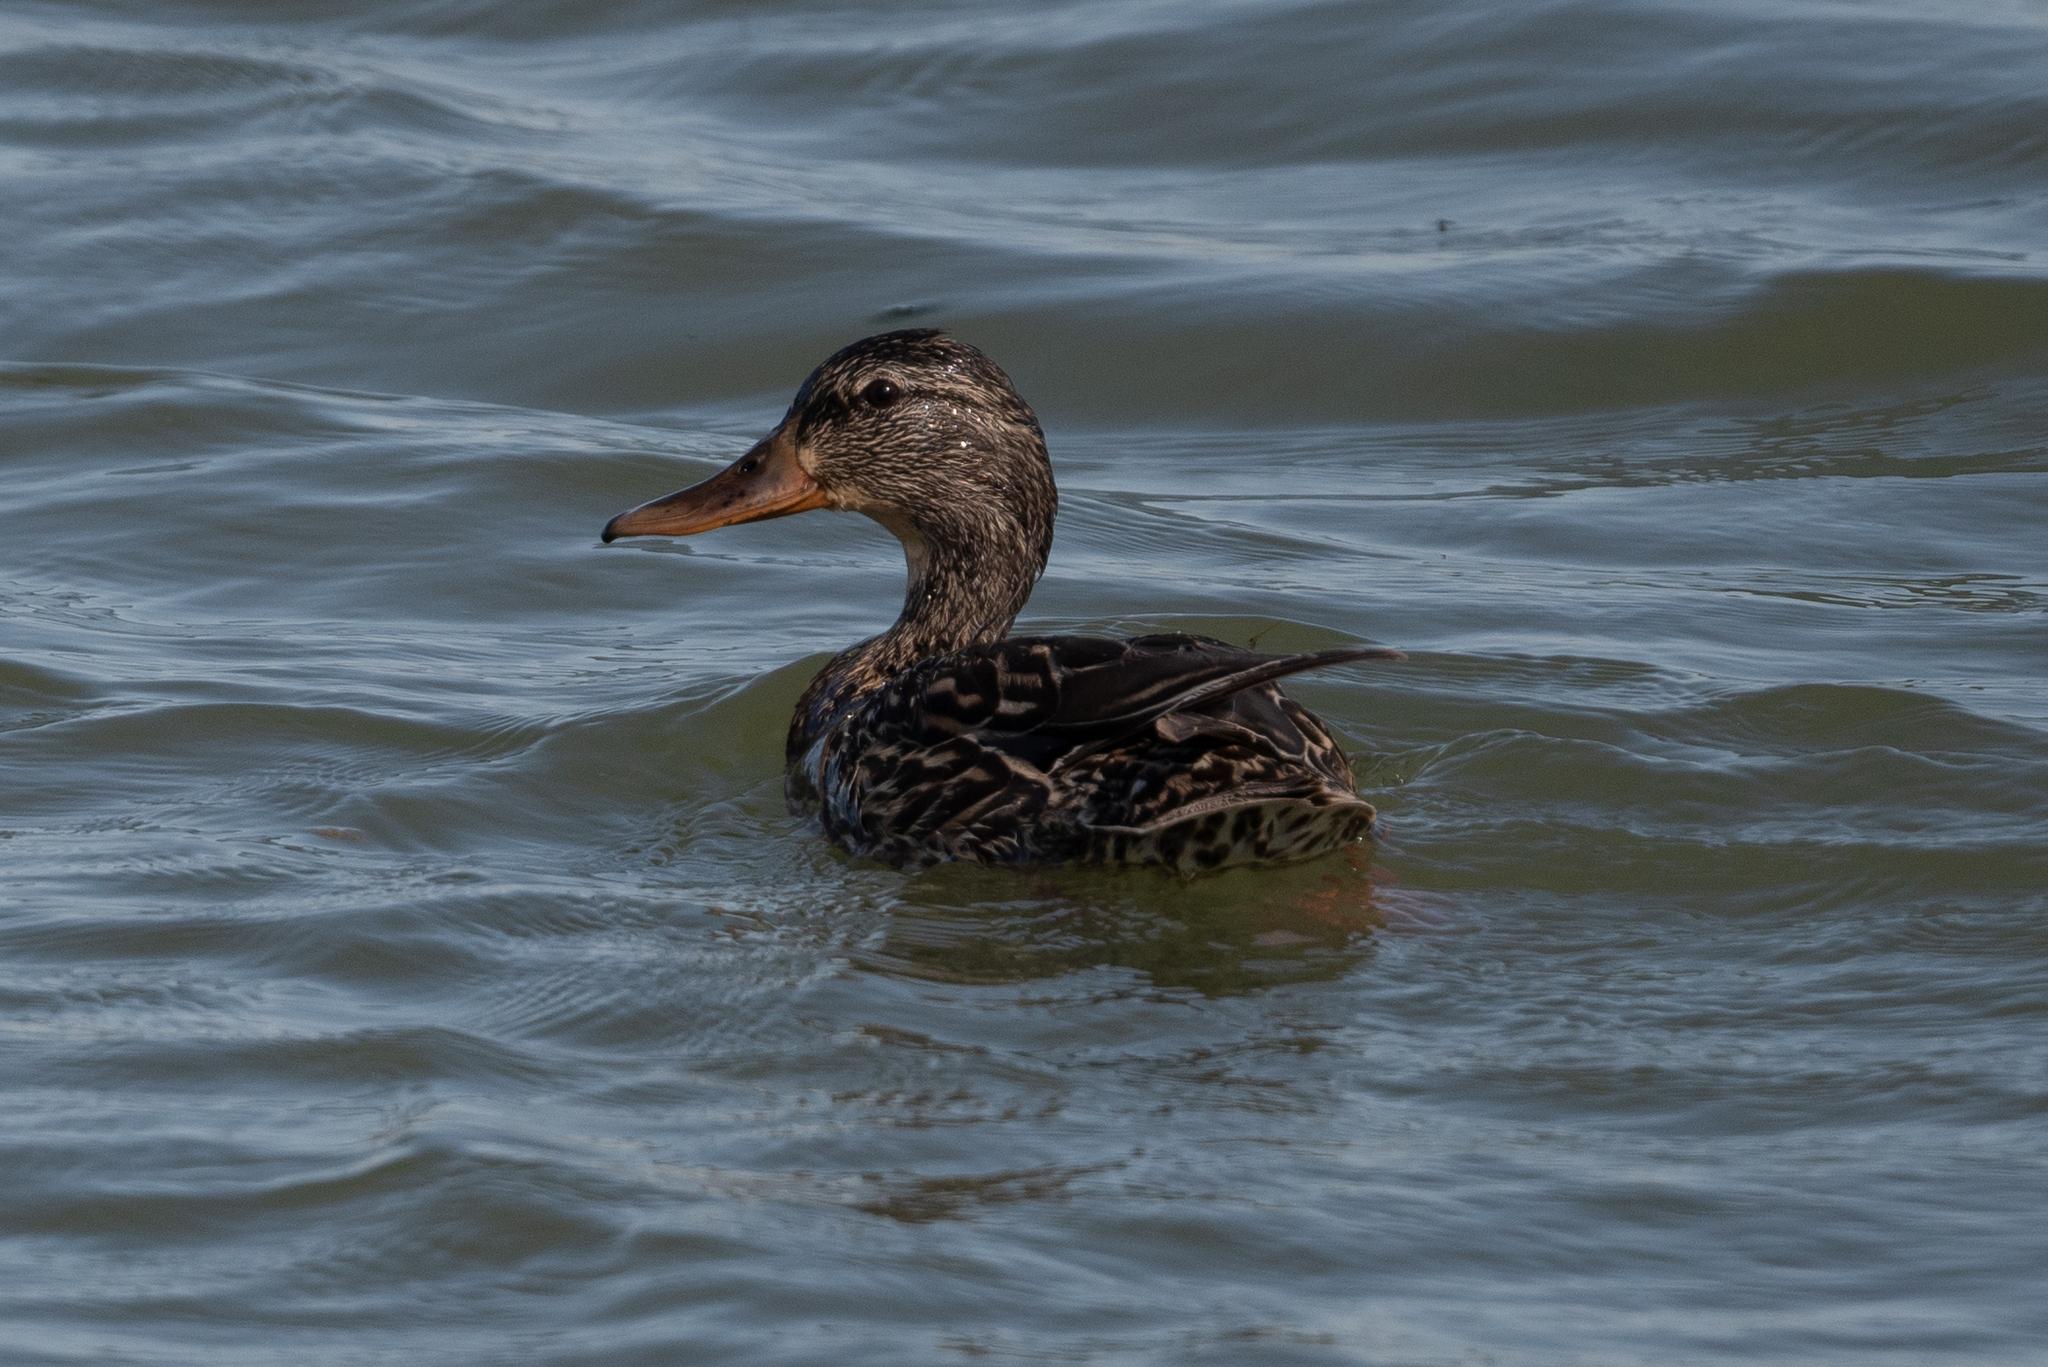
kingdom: Animalia
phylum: Chordata
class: Aves
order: Anseriformes
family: Anatidae
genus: Anas
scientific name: Anas platyrhynchos
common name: Mallard
